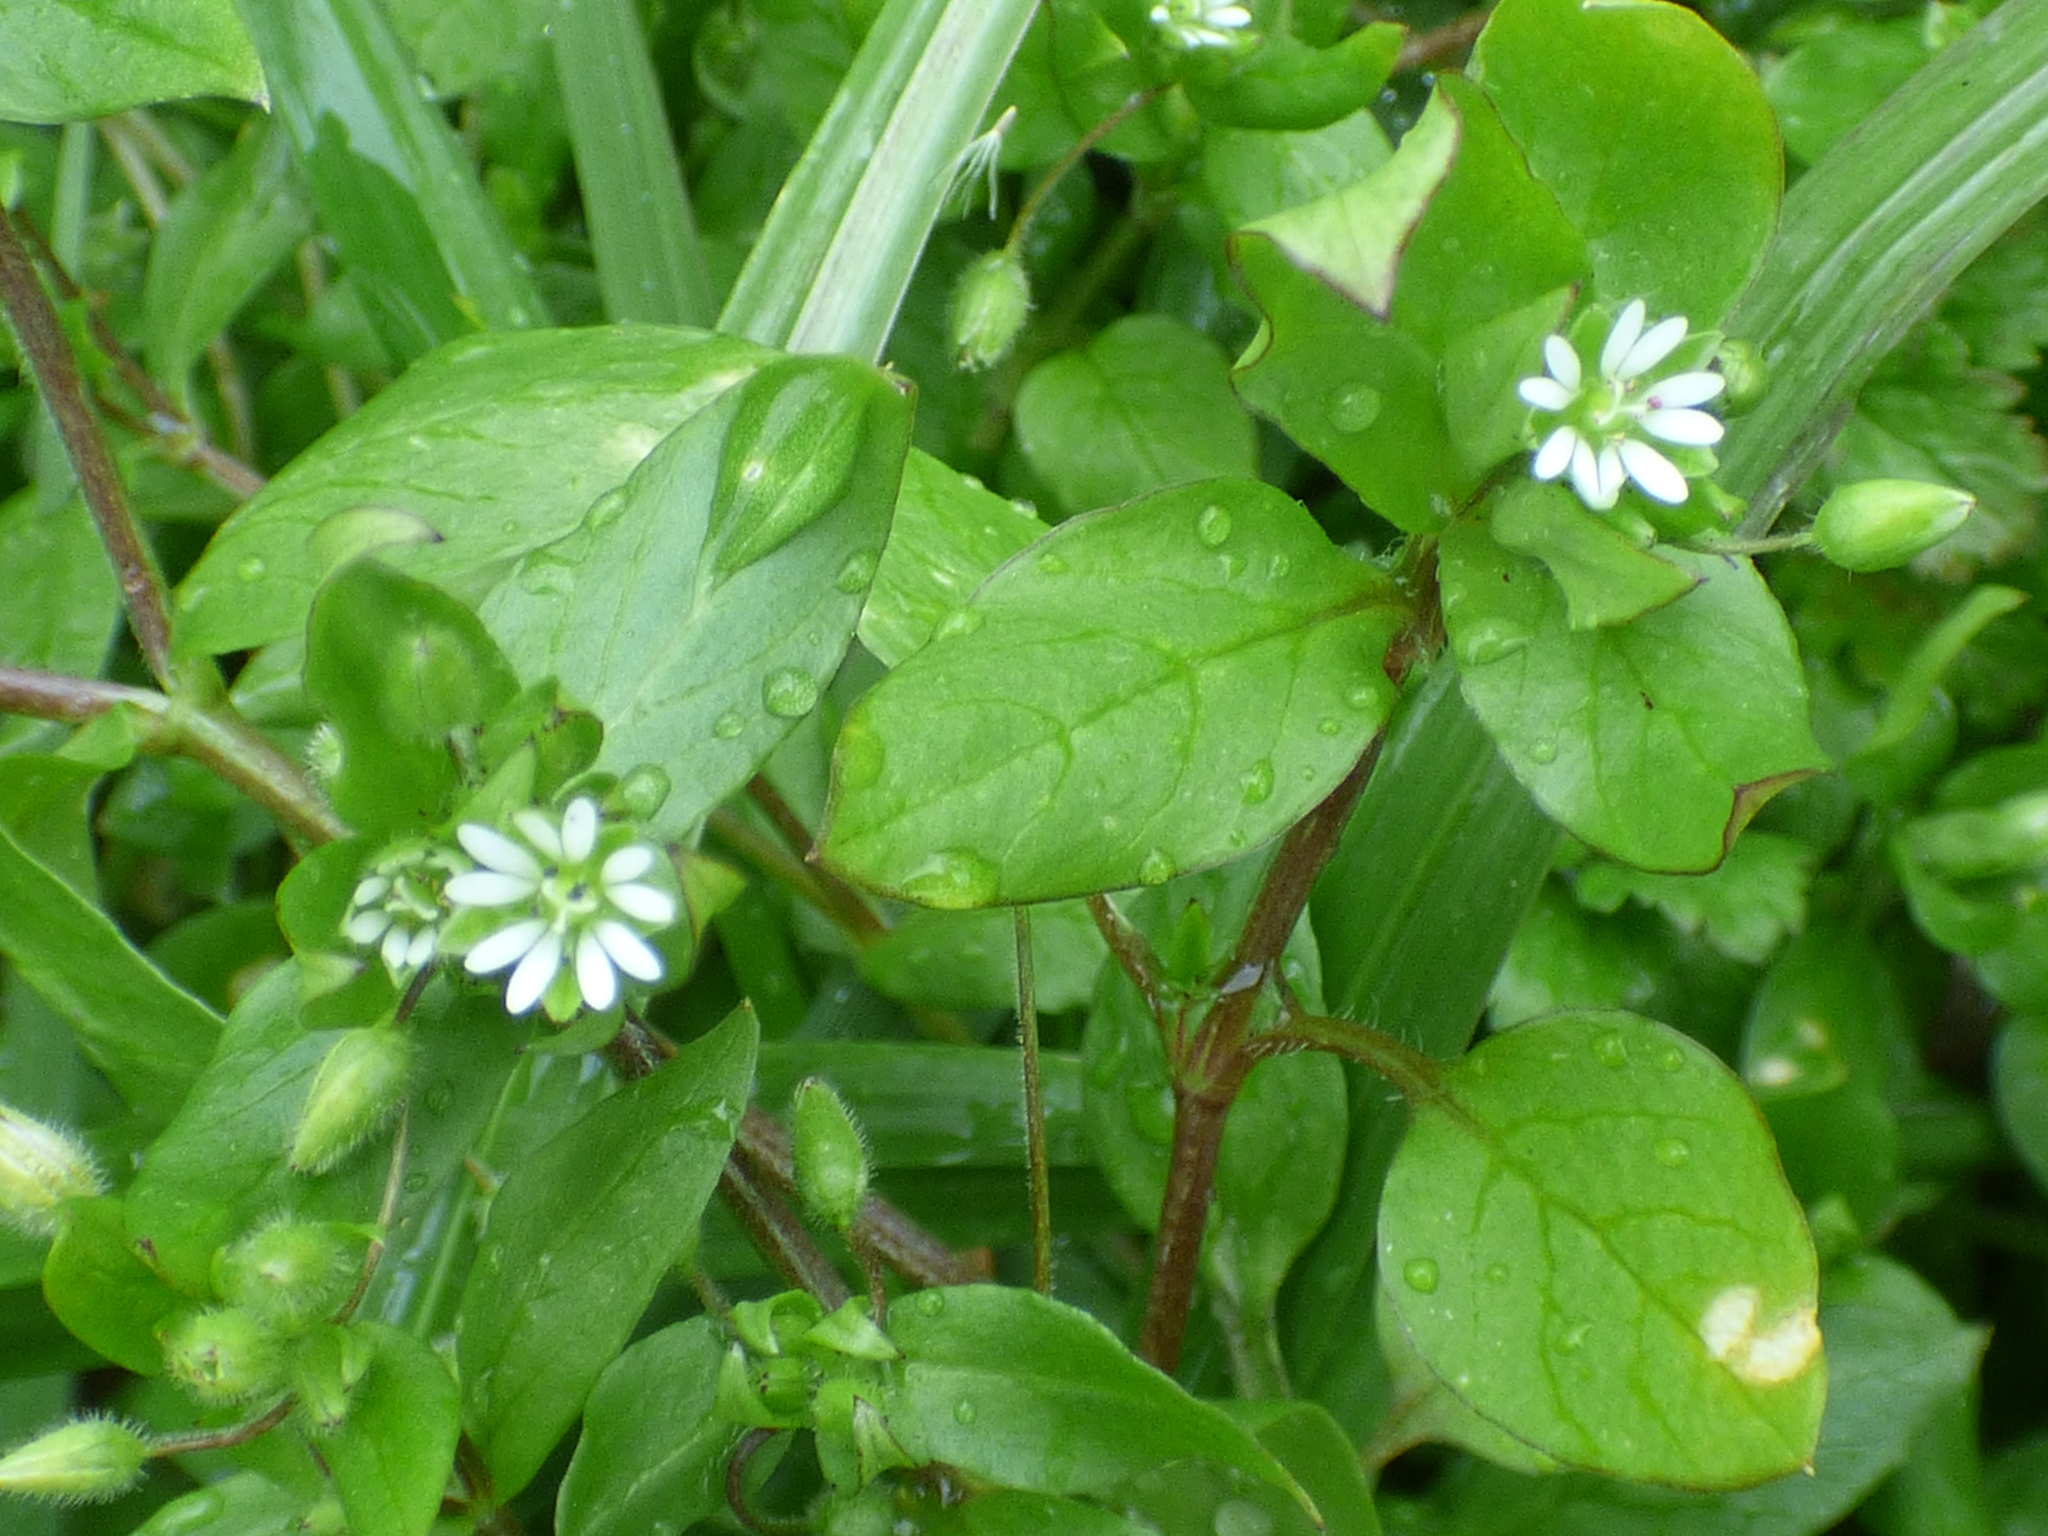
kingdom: Plantae
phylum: Tracheophyta
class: Magnoliopsida
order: Caryophyllales
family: Caryophyllaceae
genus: Stellaria
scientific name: Stellaria media
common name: Common chickweed
